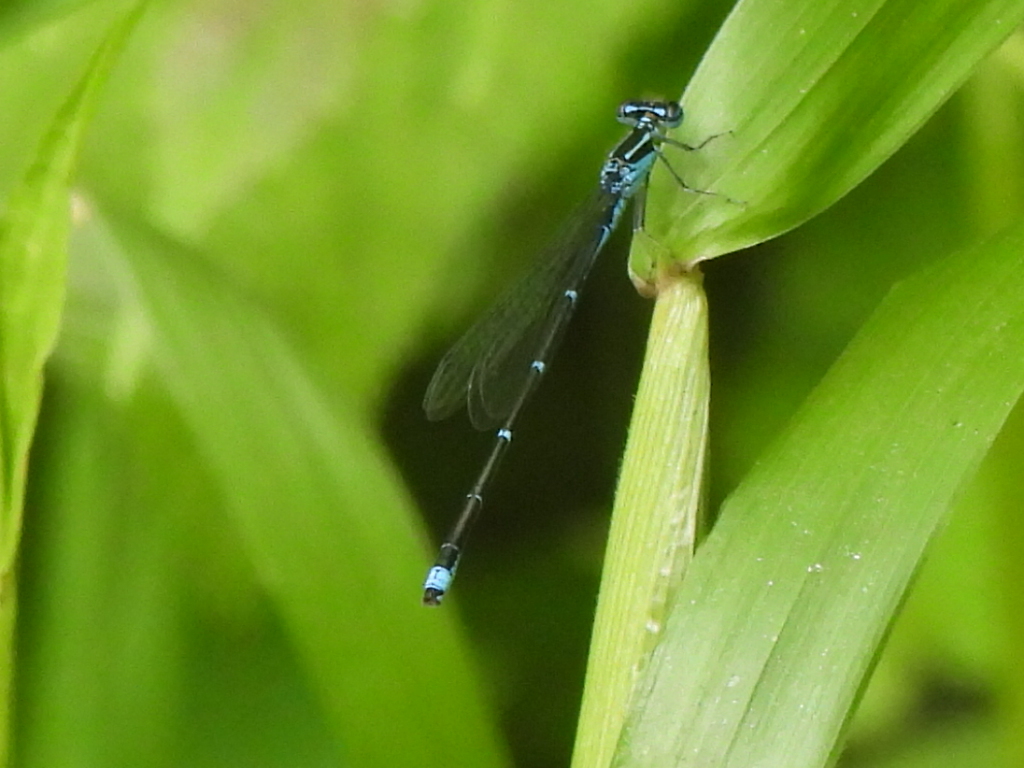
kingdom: Animalia
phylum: Arthropoda
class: Insecta
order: Odonata
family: Coenagrionidae
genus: Enallagma
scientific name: Enallagma exsulans
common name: Stream bluet
